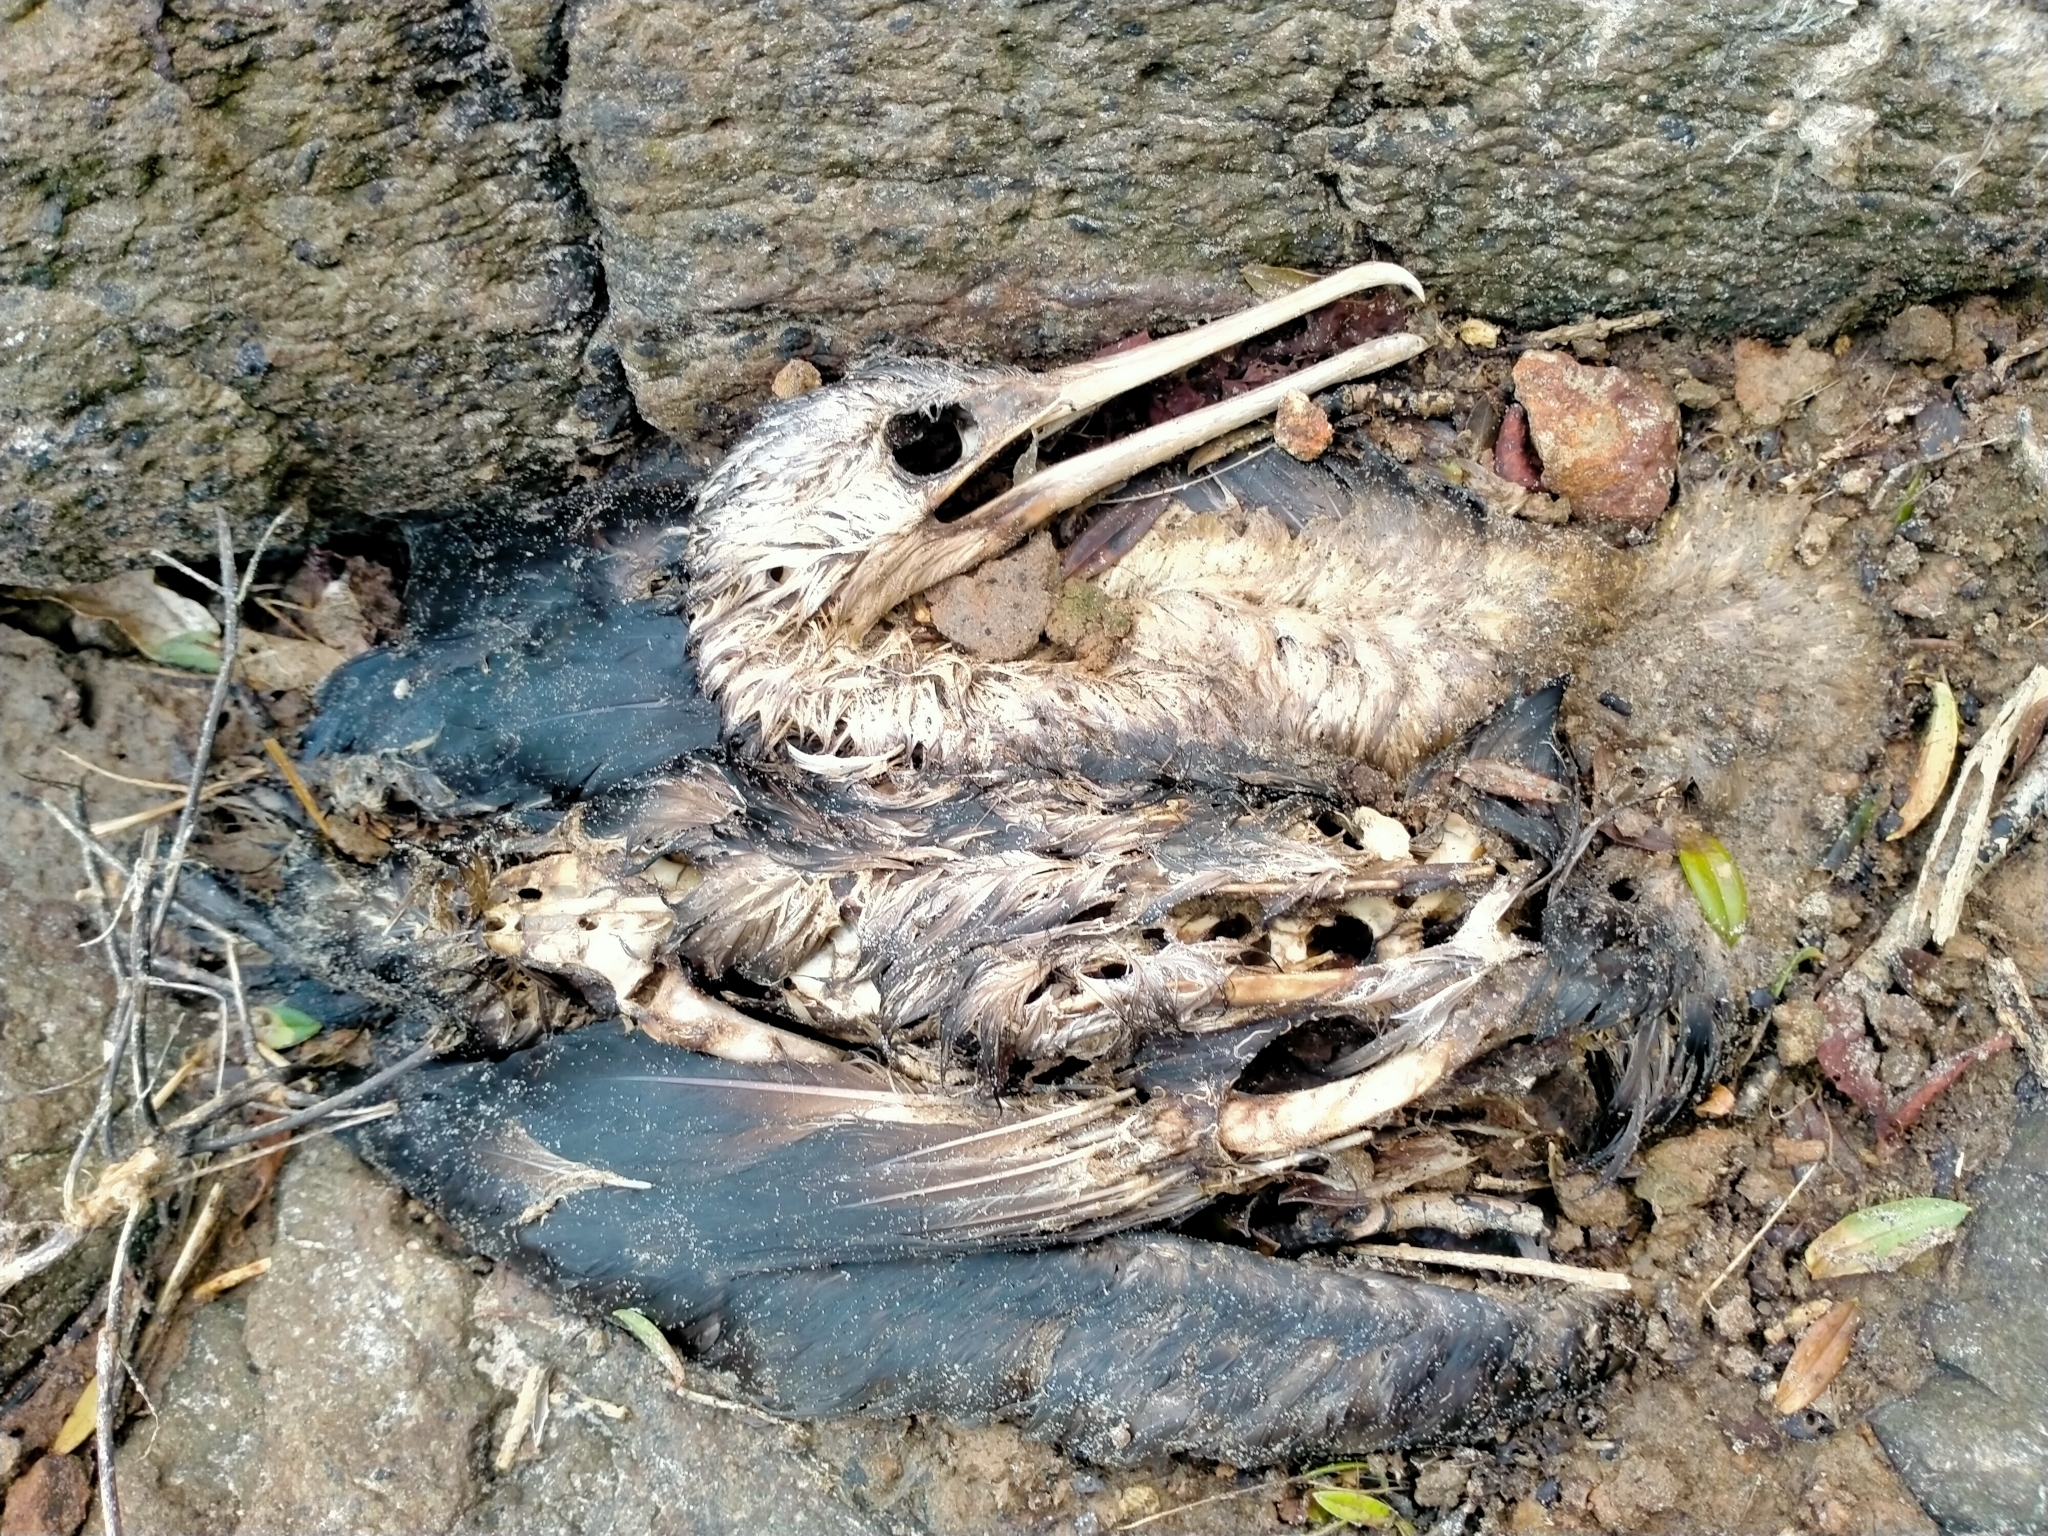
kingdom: Animalia
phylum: Chordata
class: Aves
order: Suliformes
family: Phalacrocoracidae
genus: Phalacrocorax
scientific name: Phalacrocorax punctatus
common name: Spotted shag
